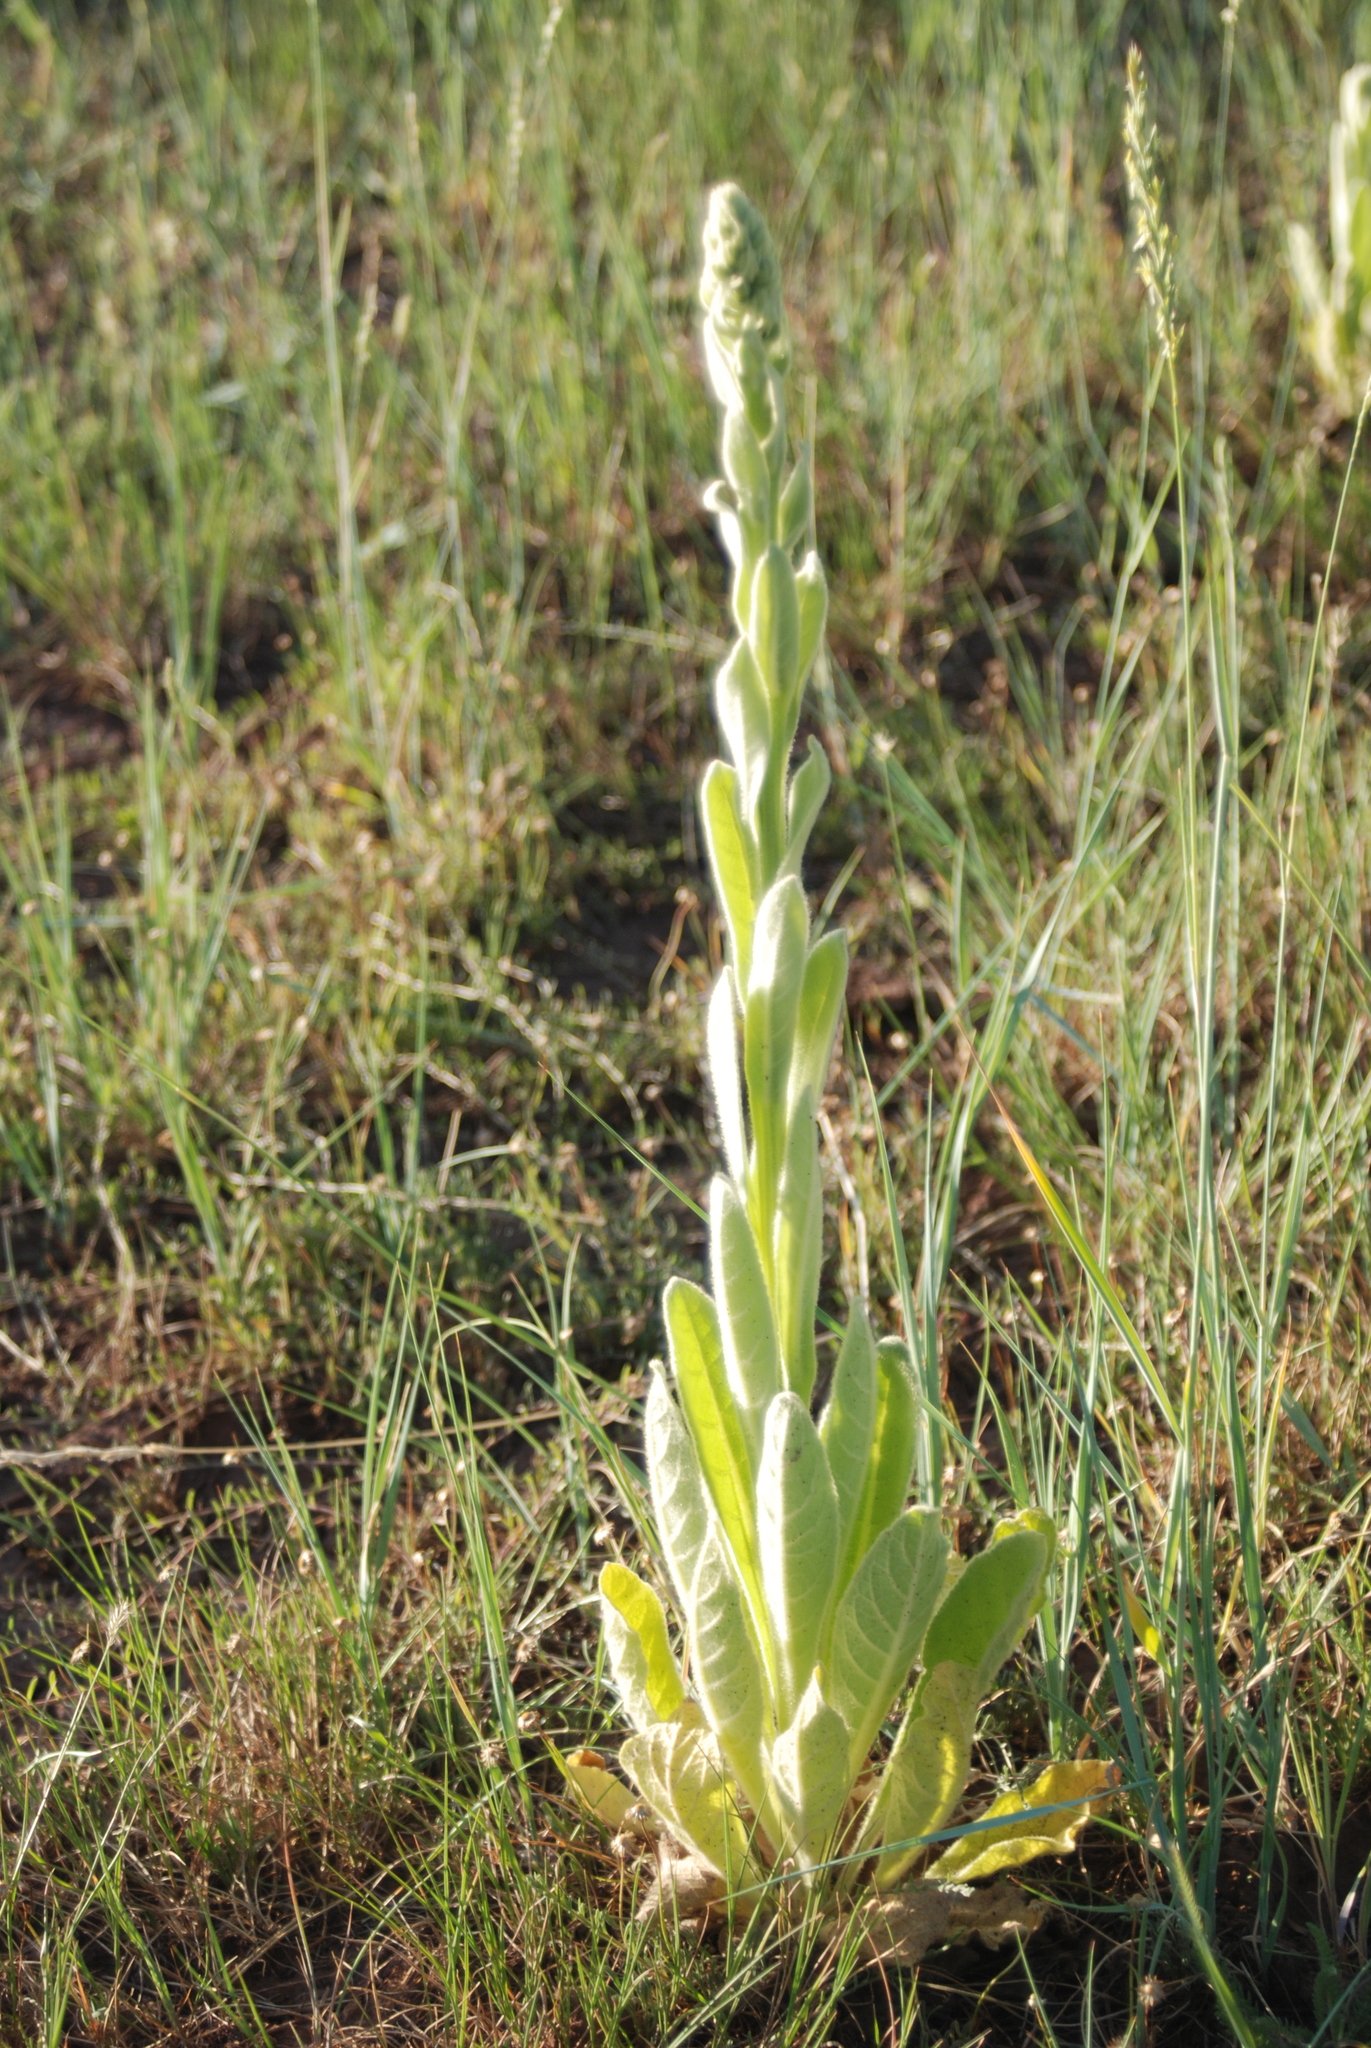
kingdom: Plantae
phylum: Tracheophyta
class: Magnoliopsida
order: Lamiales
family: Scrophulariaceae
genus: Verbascum
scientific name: Verbascum thapsus
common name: Common mullein
